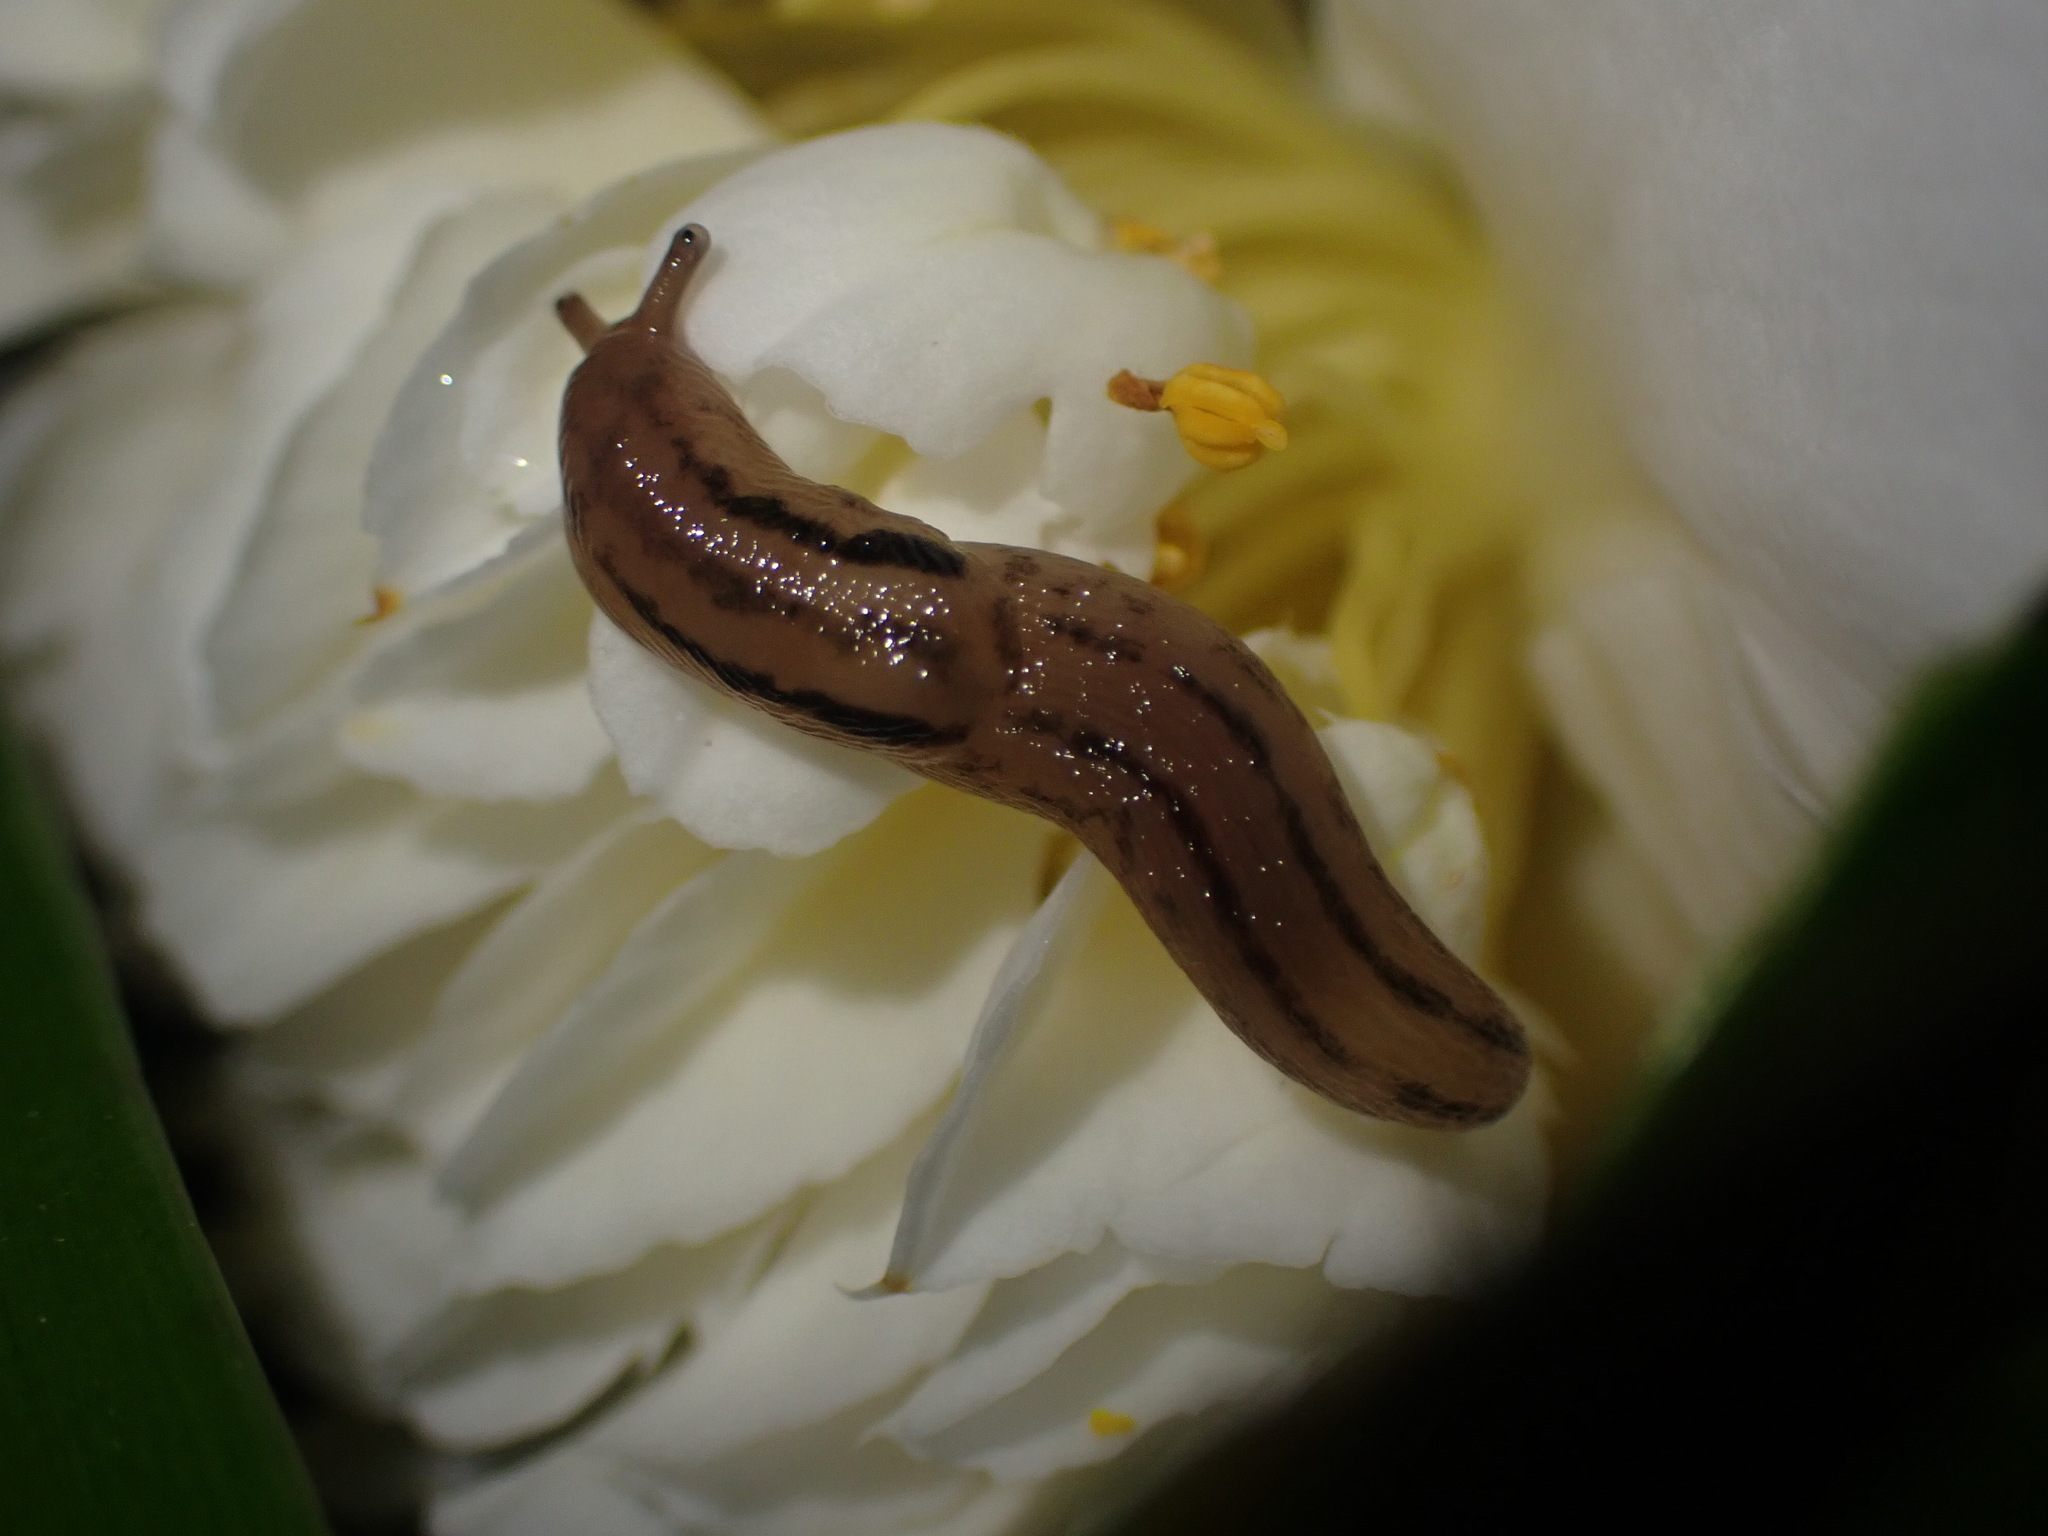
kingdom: Animalia
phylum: Mollusca
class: Gastropoda
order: Stylommatophora
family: Limacidae
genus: Ambigolimax
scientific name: Ambigolimax
